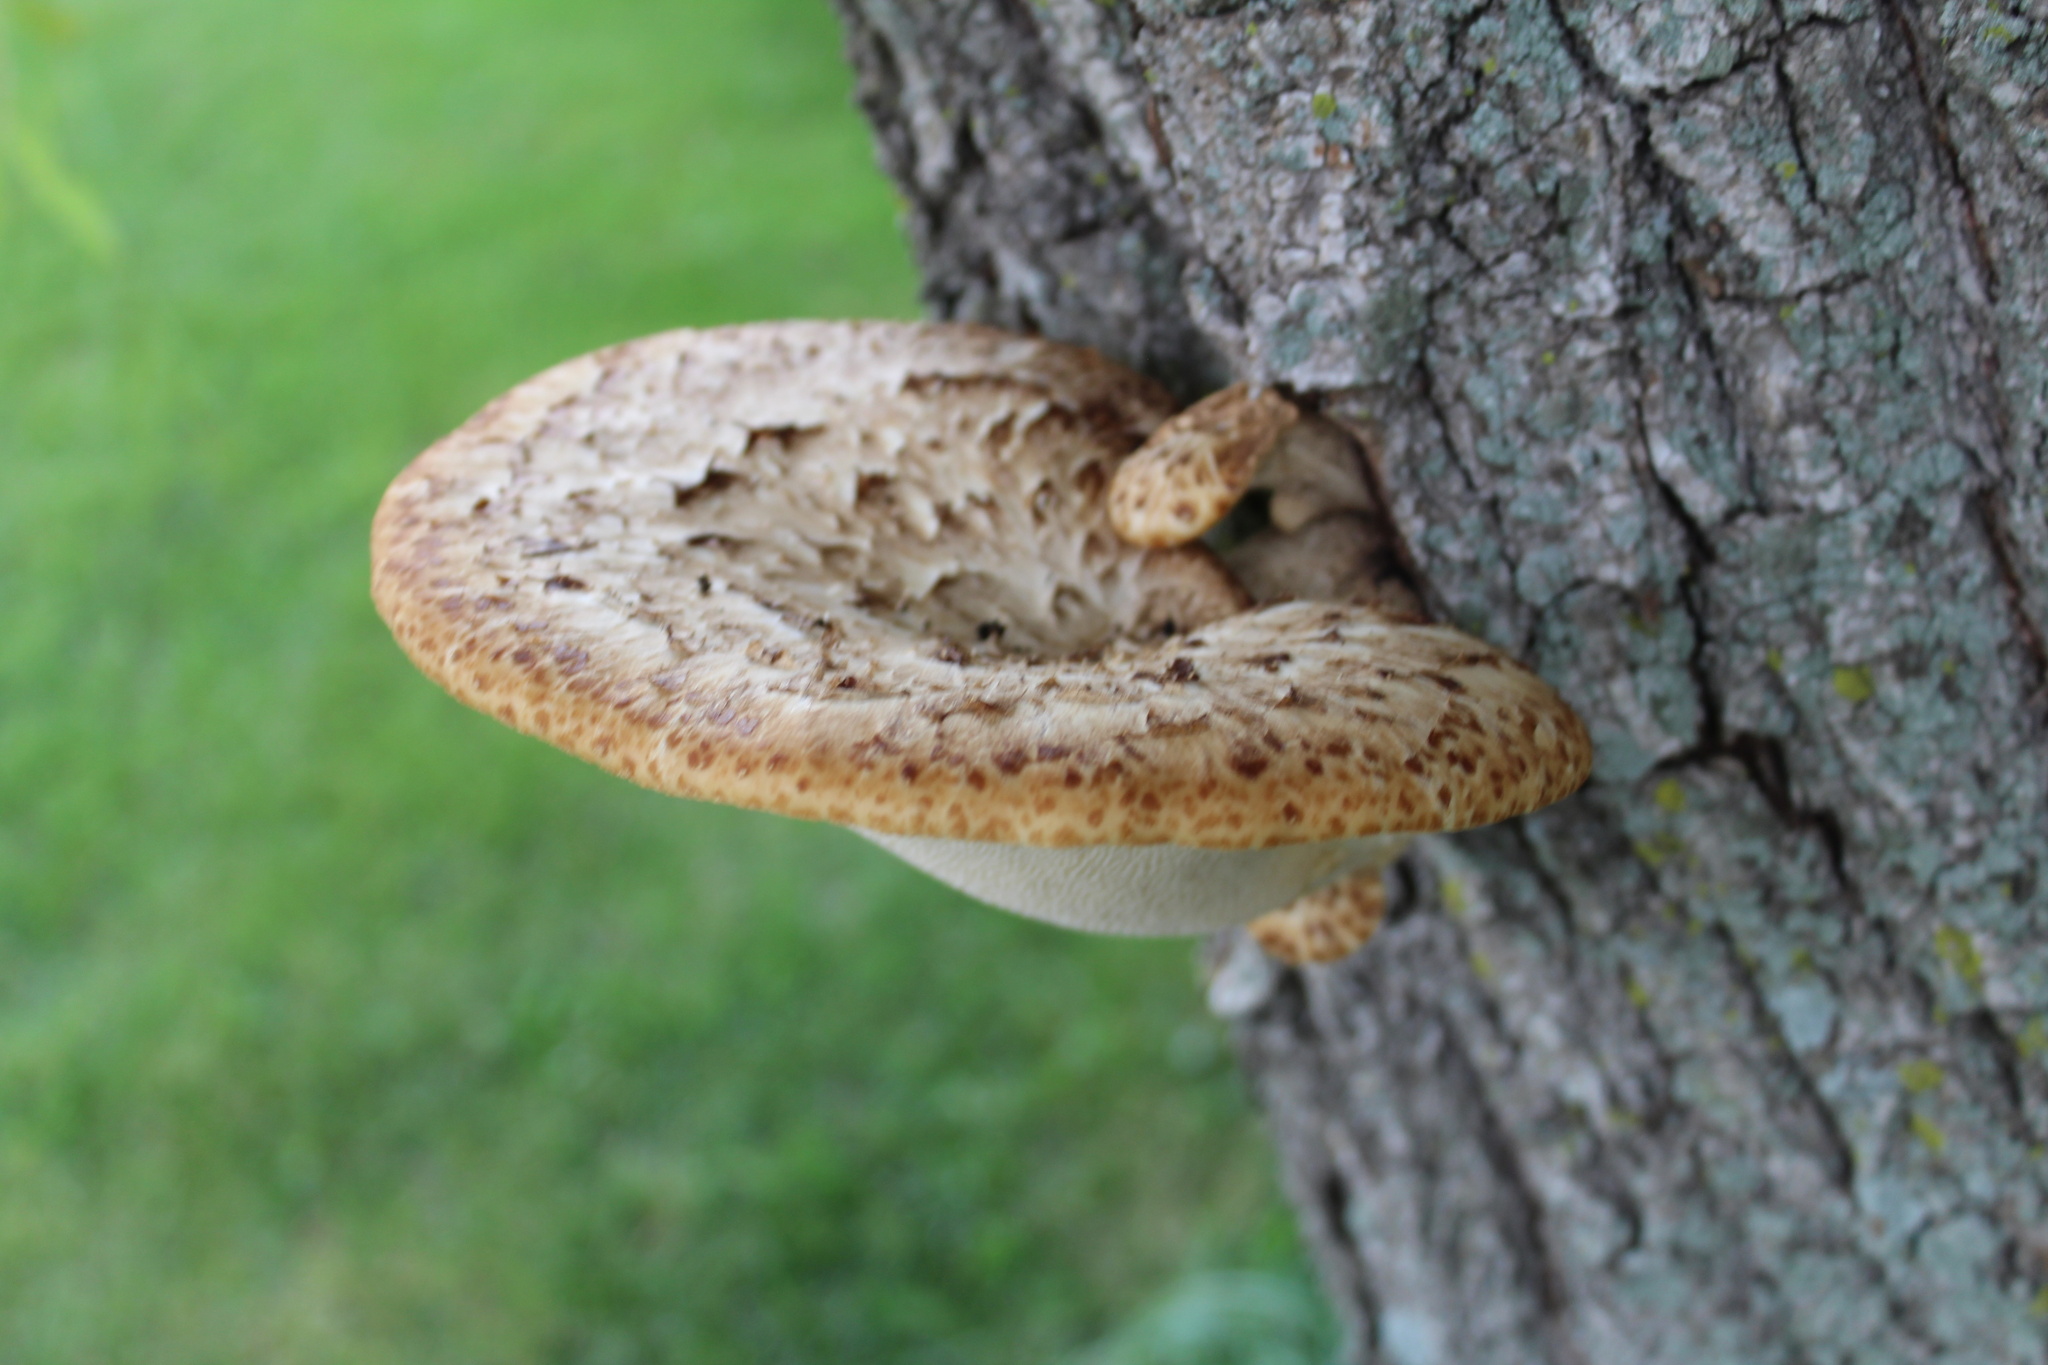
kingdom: Fungi
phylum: Basidiomycota
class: Agaricomycetes
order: Polyporales
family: Polyporaceae
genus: Cerioporus
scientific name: Cerioporus squamosus
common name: Dryad's saddle
